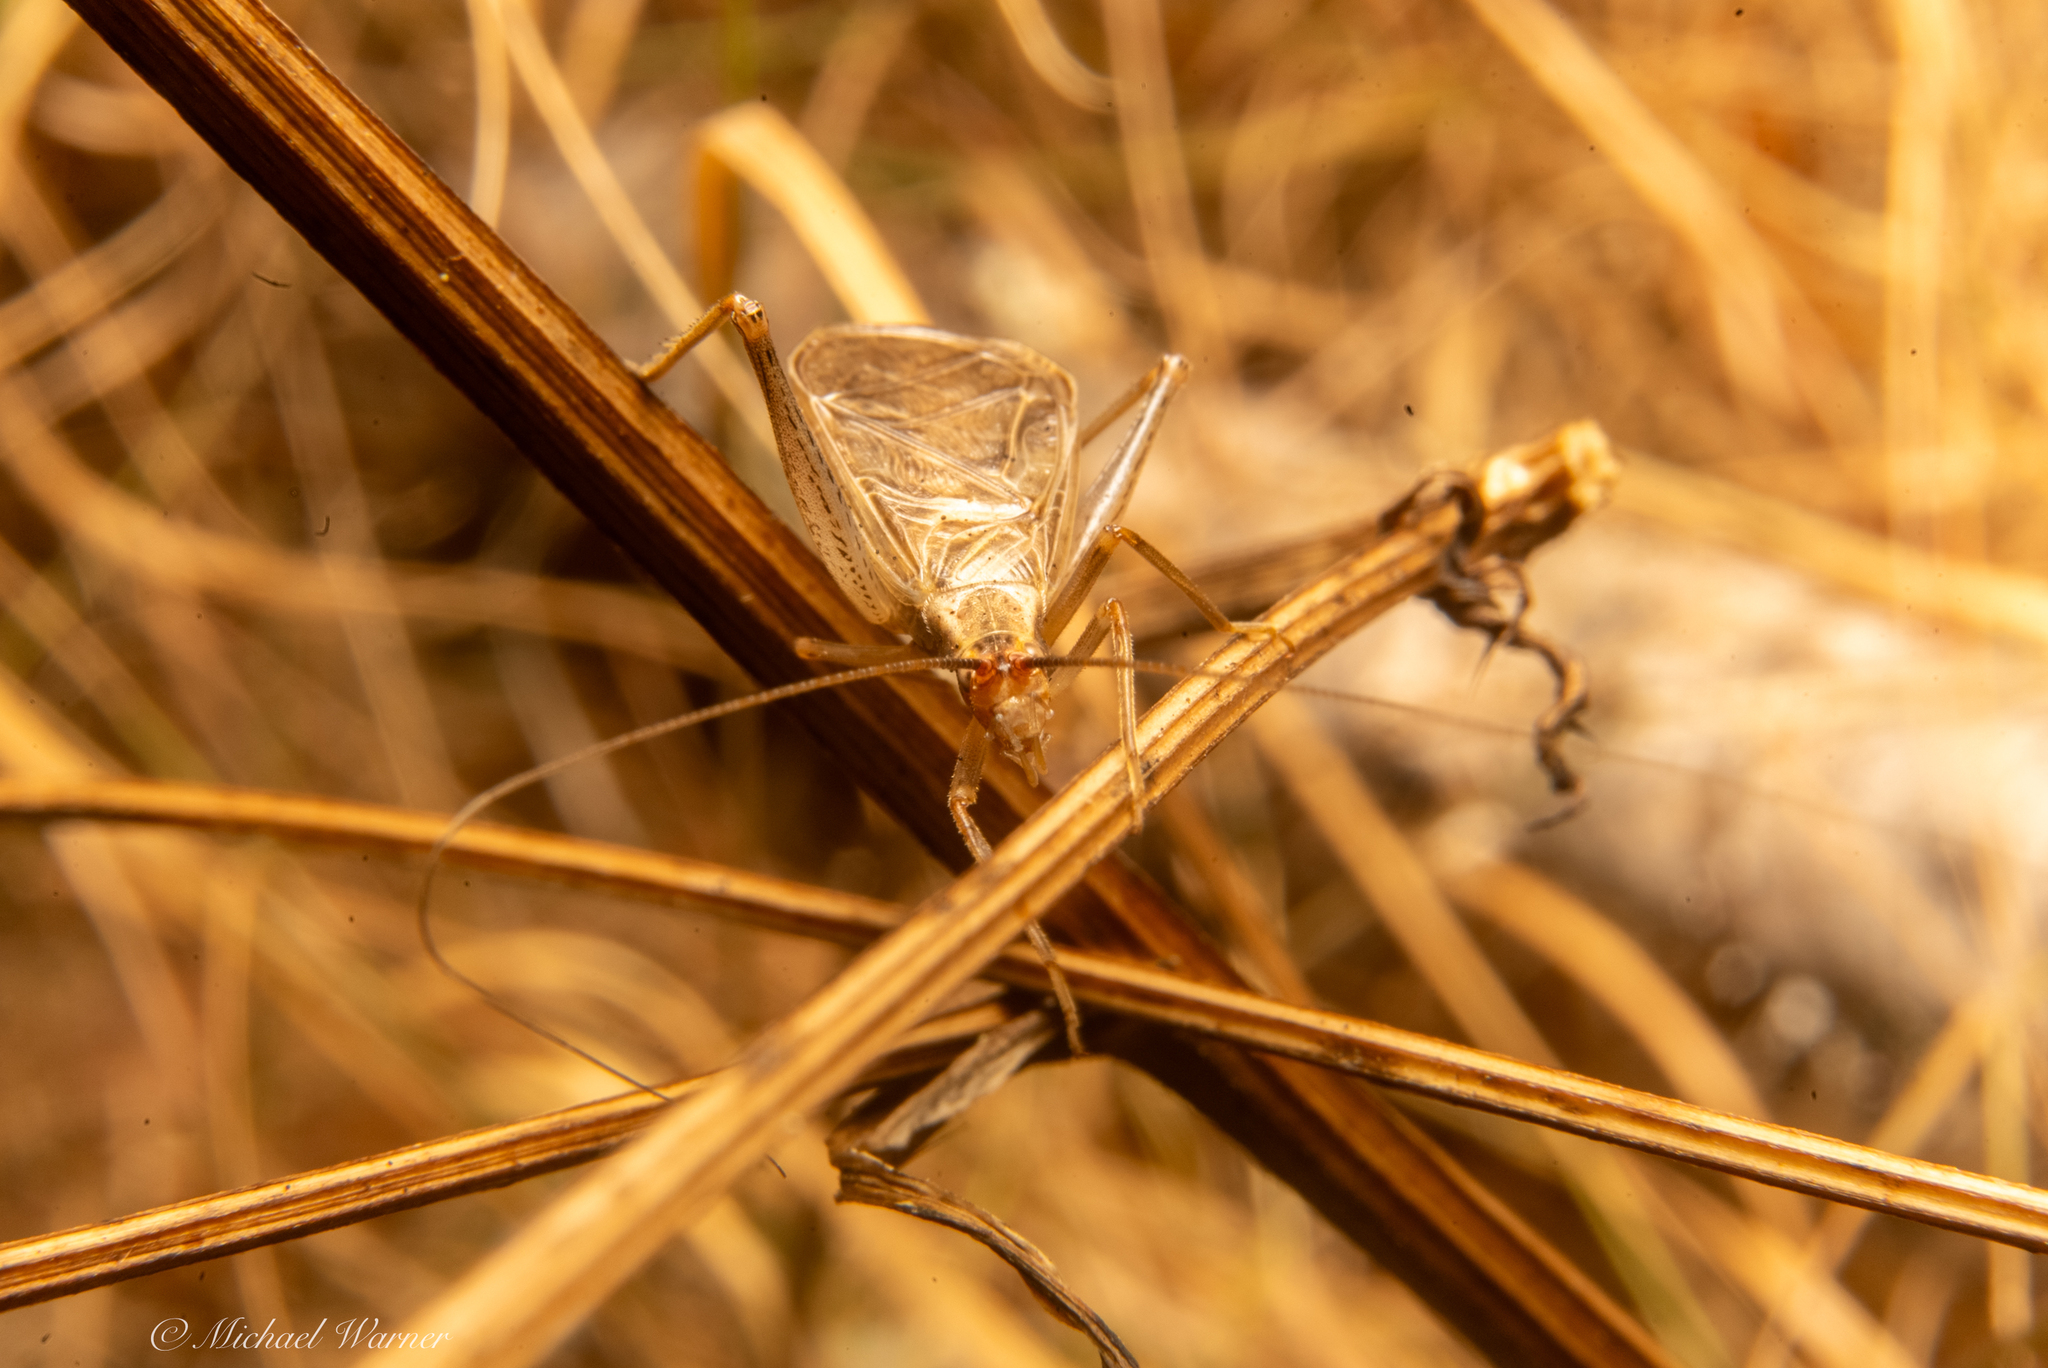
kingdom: Animalia
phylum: Arthropoda
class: Insecta
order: Orthoptera
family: Gryllidae
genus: Oecanthus
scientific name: Oecanthus californicus
